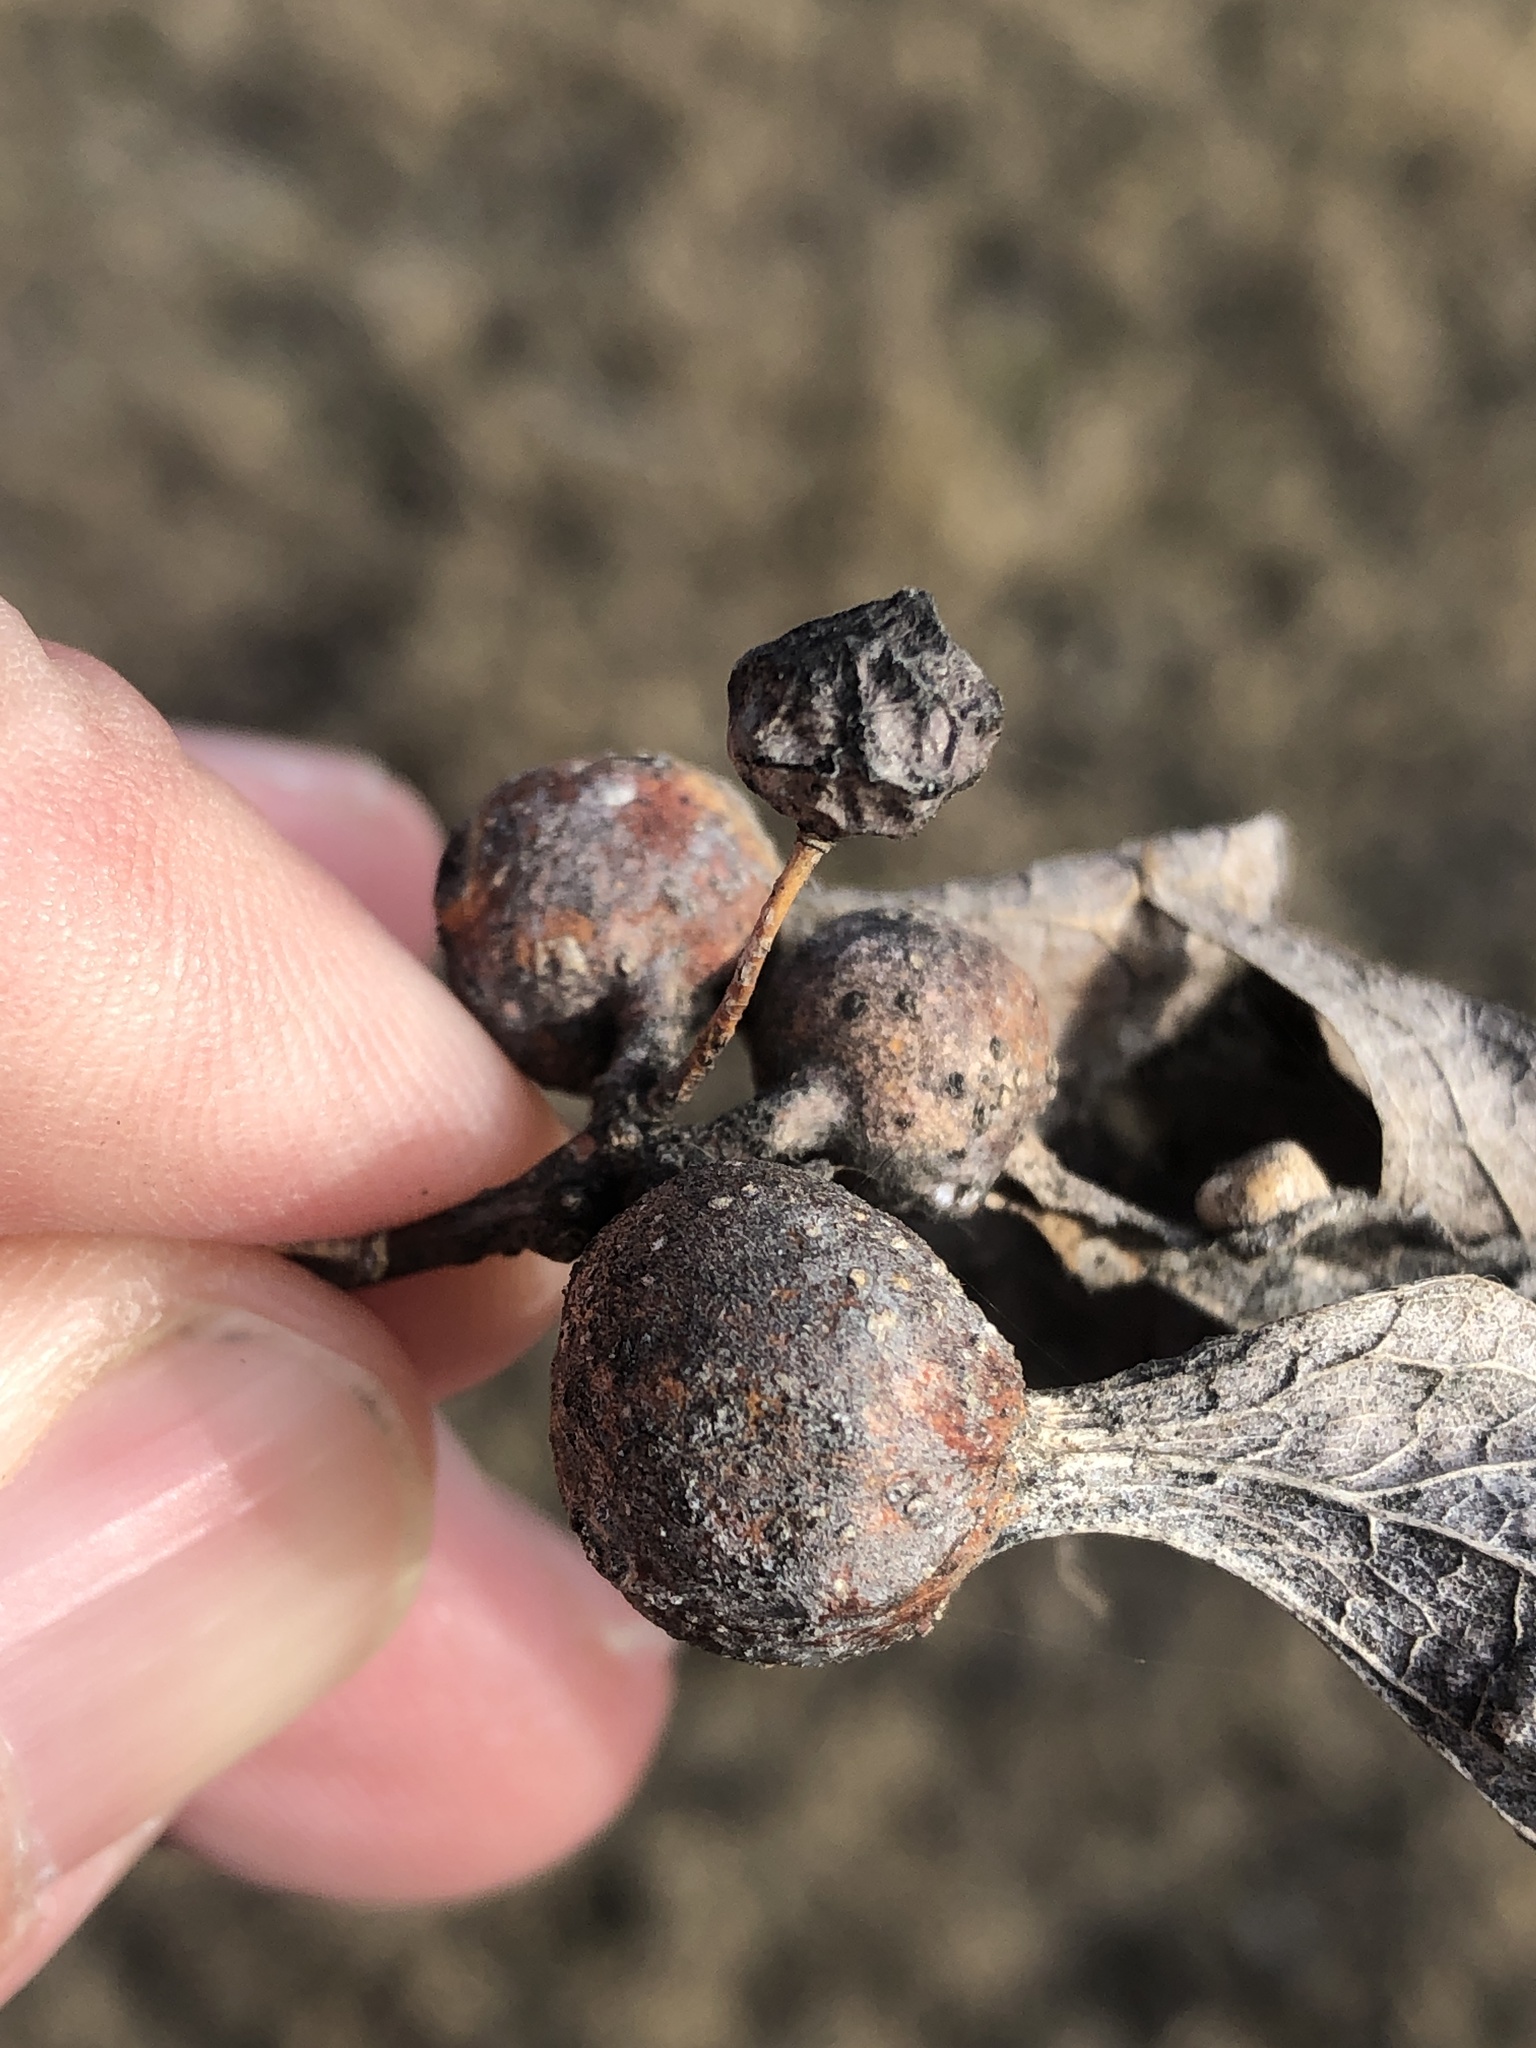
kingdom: Animalia
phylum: Arthropoda
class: Insecta
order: Hemiptera
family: Aphalaridae
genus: Pachypsylla
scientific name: Pachypsylla venusta
